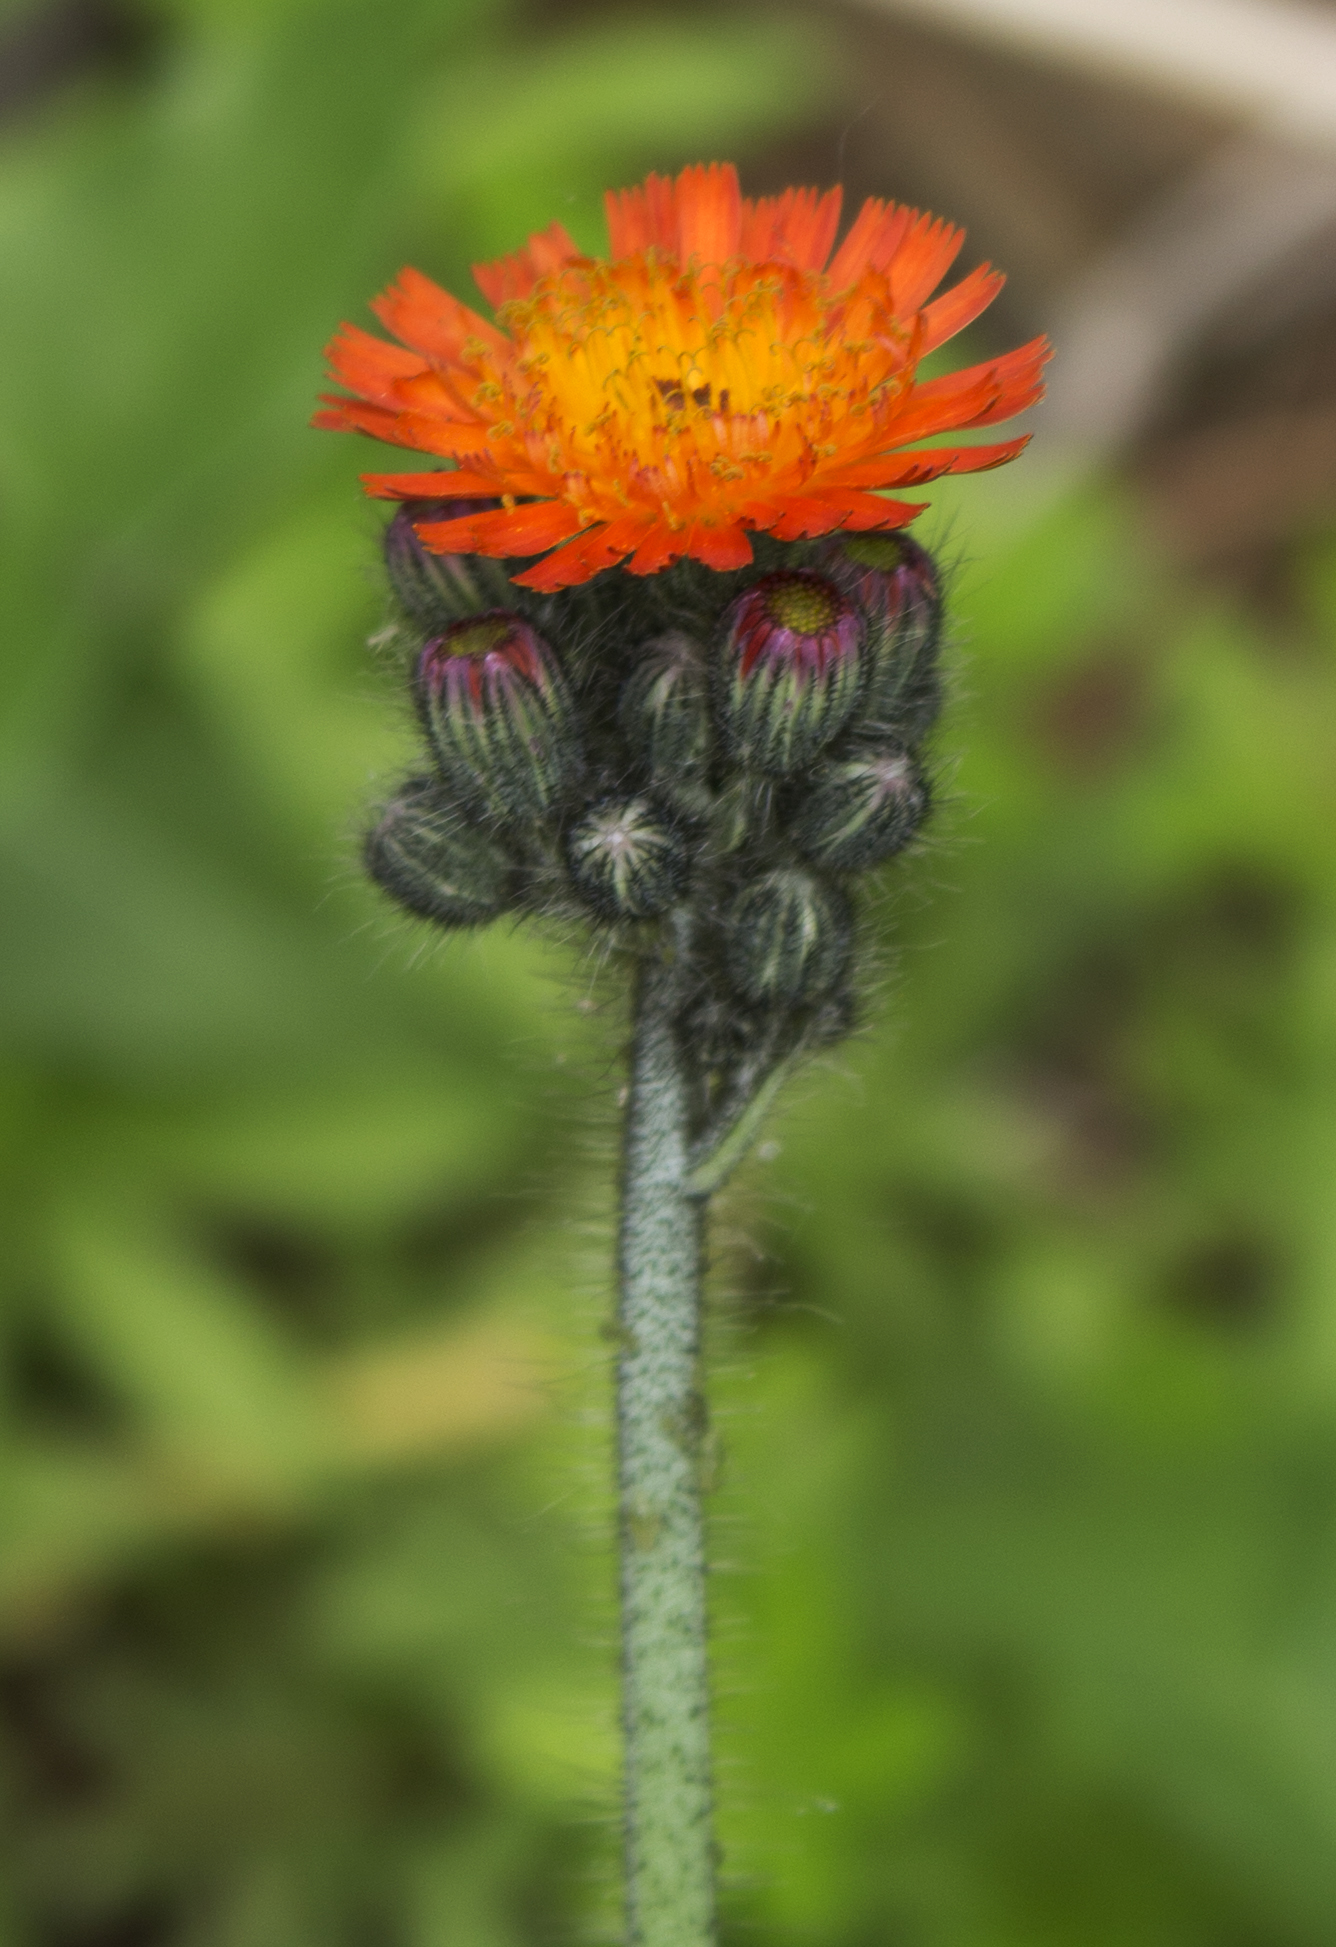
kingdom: Plantae
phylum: Tracheophyta
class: Magnoliopsida
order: Asterales
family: Asteraceae
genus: Pilosella
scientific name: Pilosella aurantiaca
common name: Fox-and-cubs
